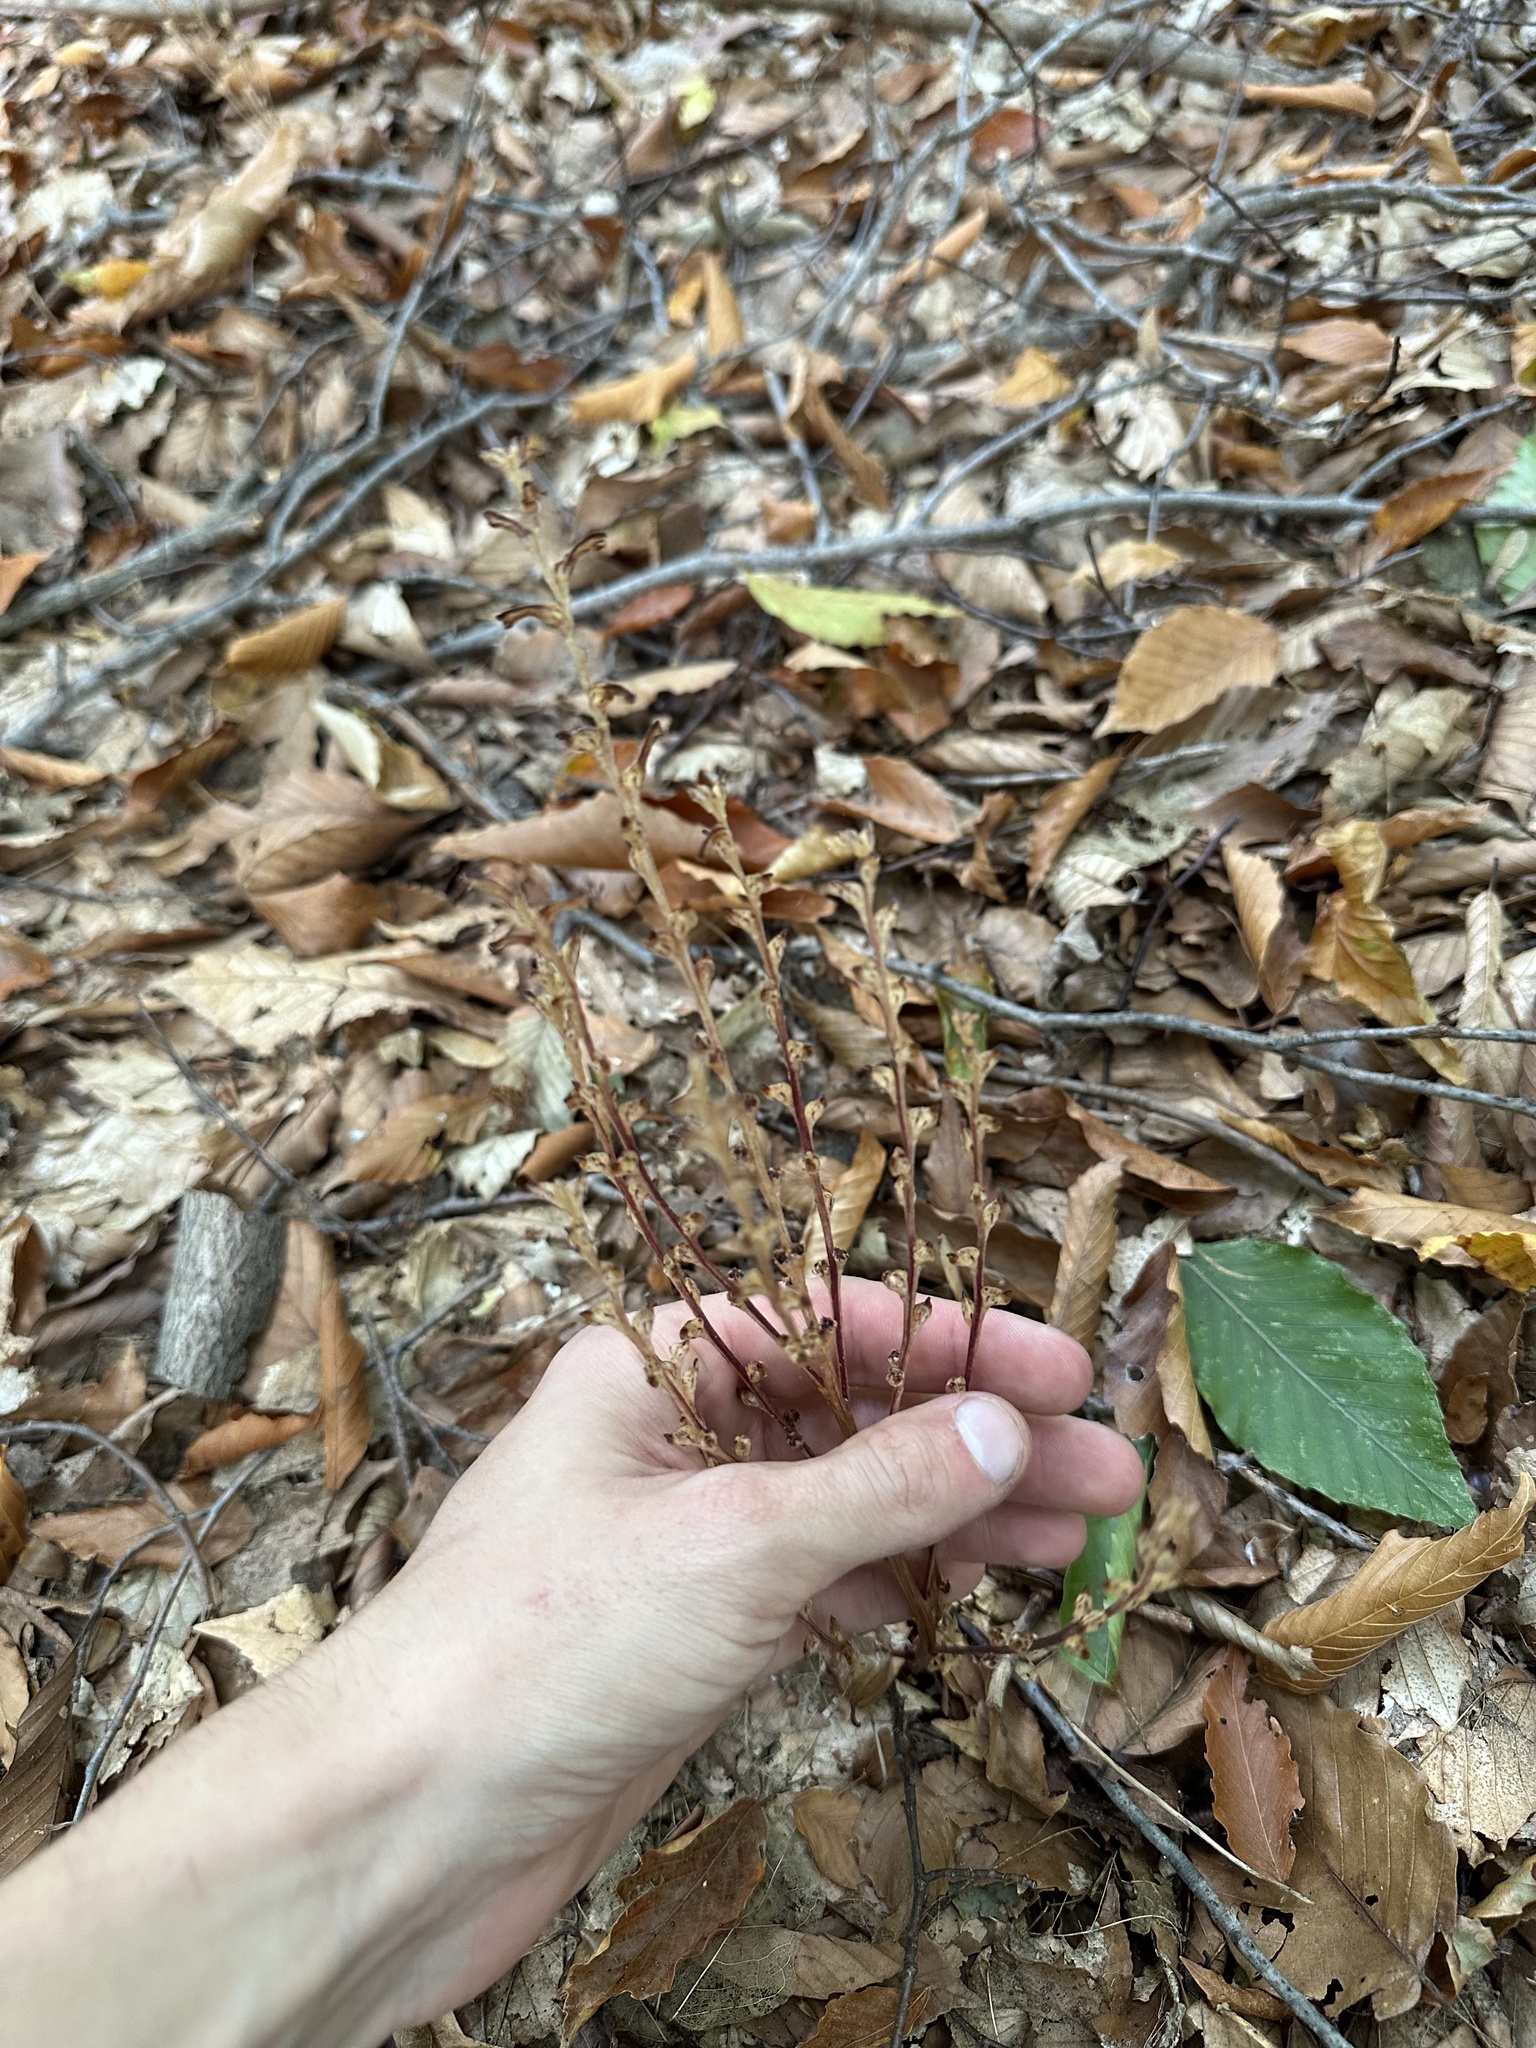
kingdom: Plantae
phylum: Tracheophyta
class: Magnoliopsida
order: Lamiales
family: Orobanchaceae
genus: Epifagus
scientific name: Epifagus virginiana
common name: Beechdrops
